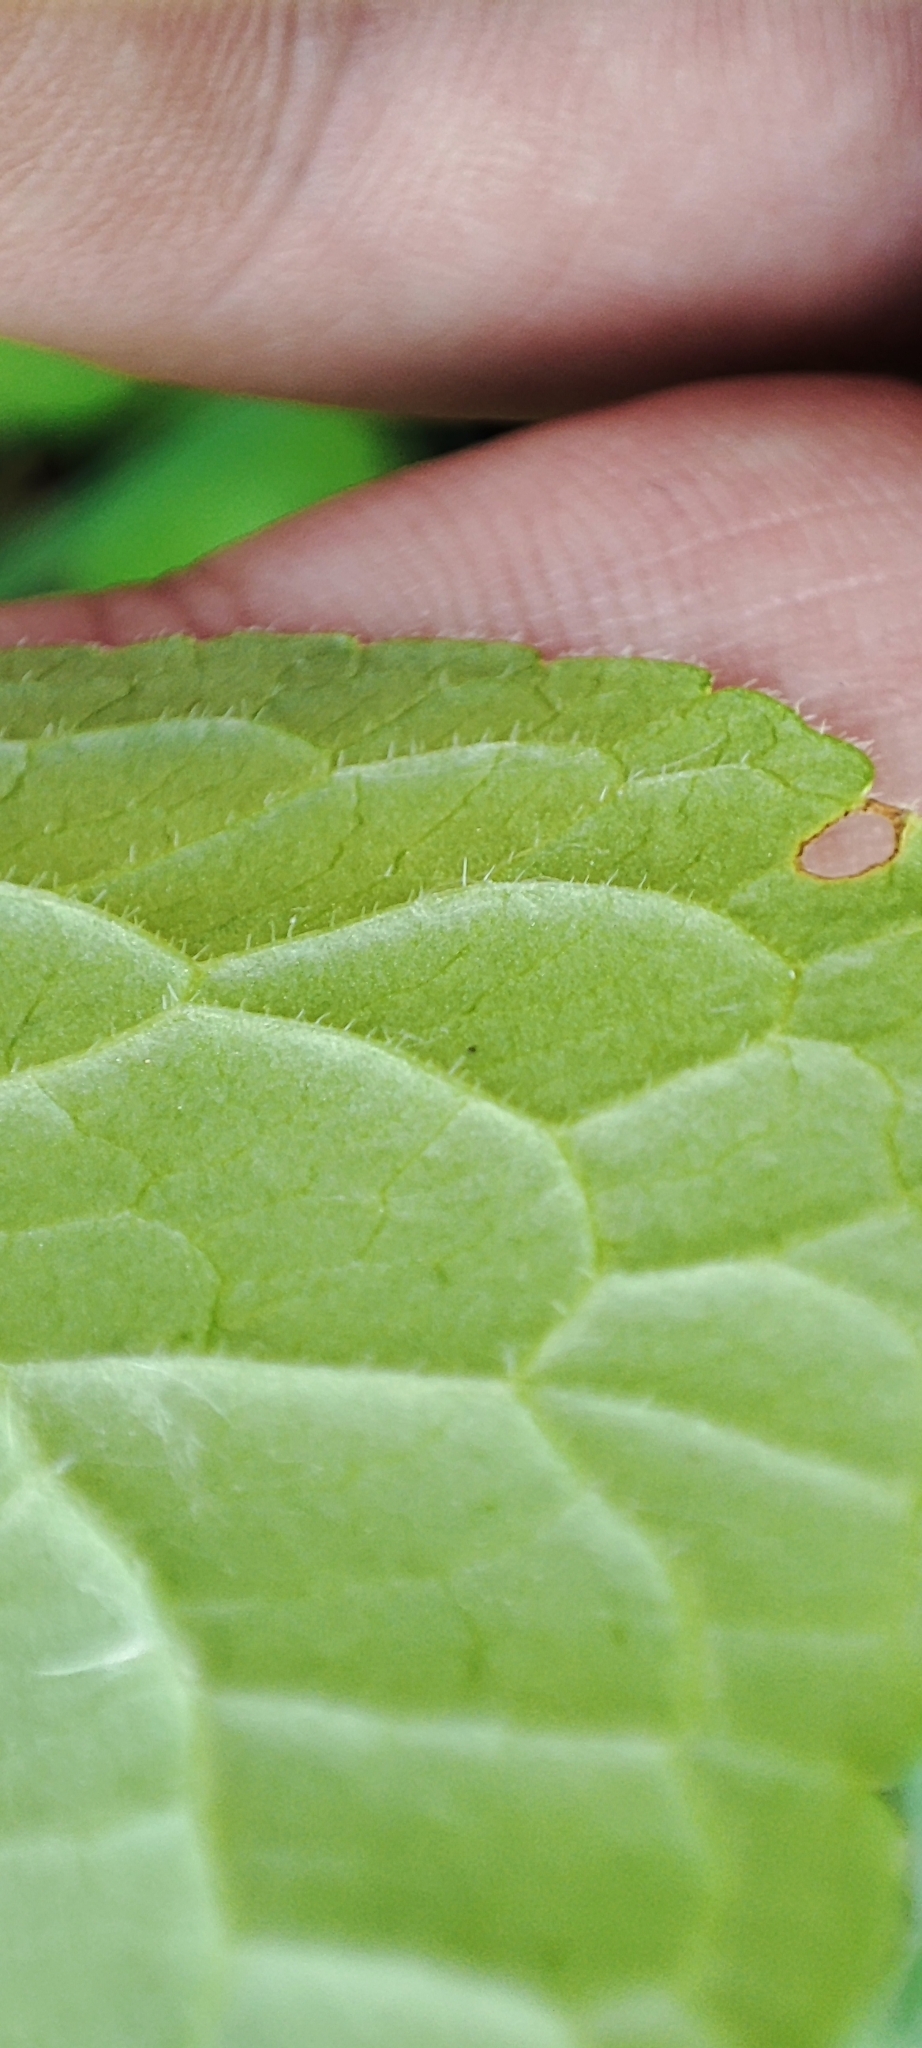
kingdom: Plantae
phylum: Tracheophyta
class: Magnoliopsida
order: Malpighiales
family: Violaceae
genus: Viola
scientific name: Viola mirabilis
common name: Wonder violet
